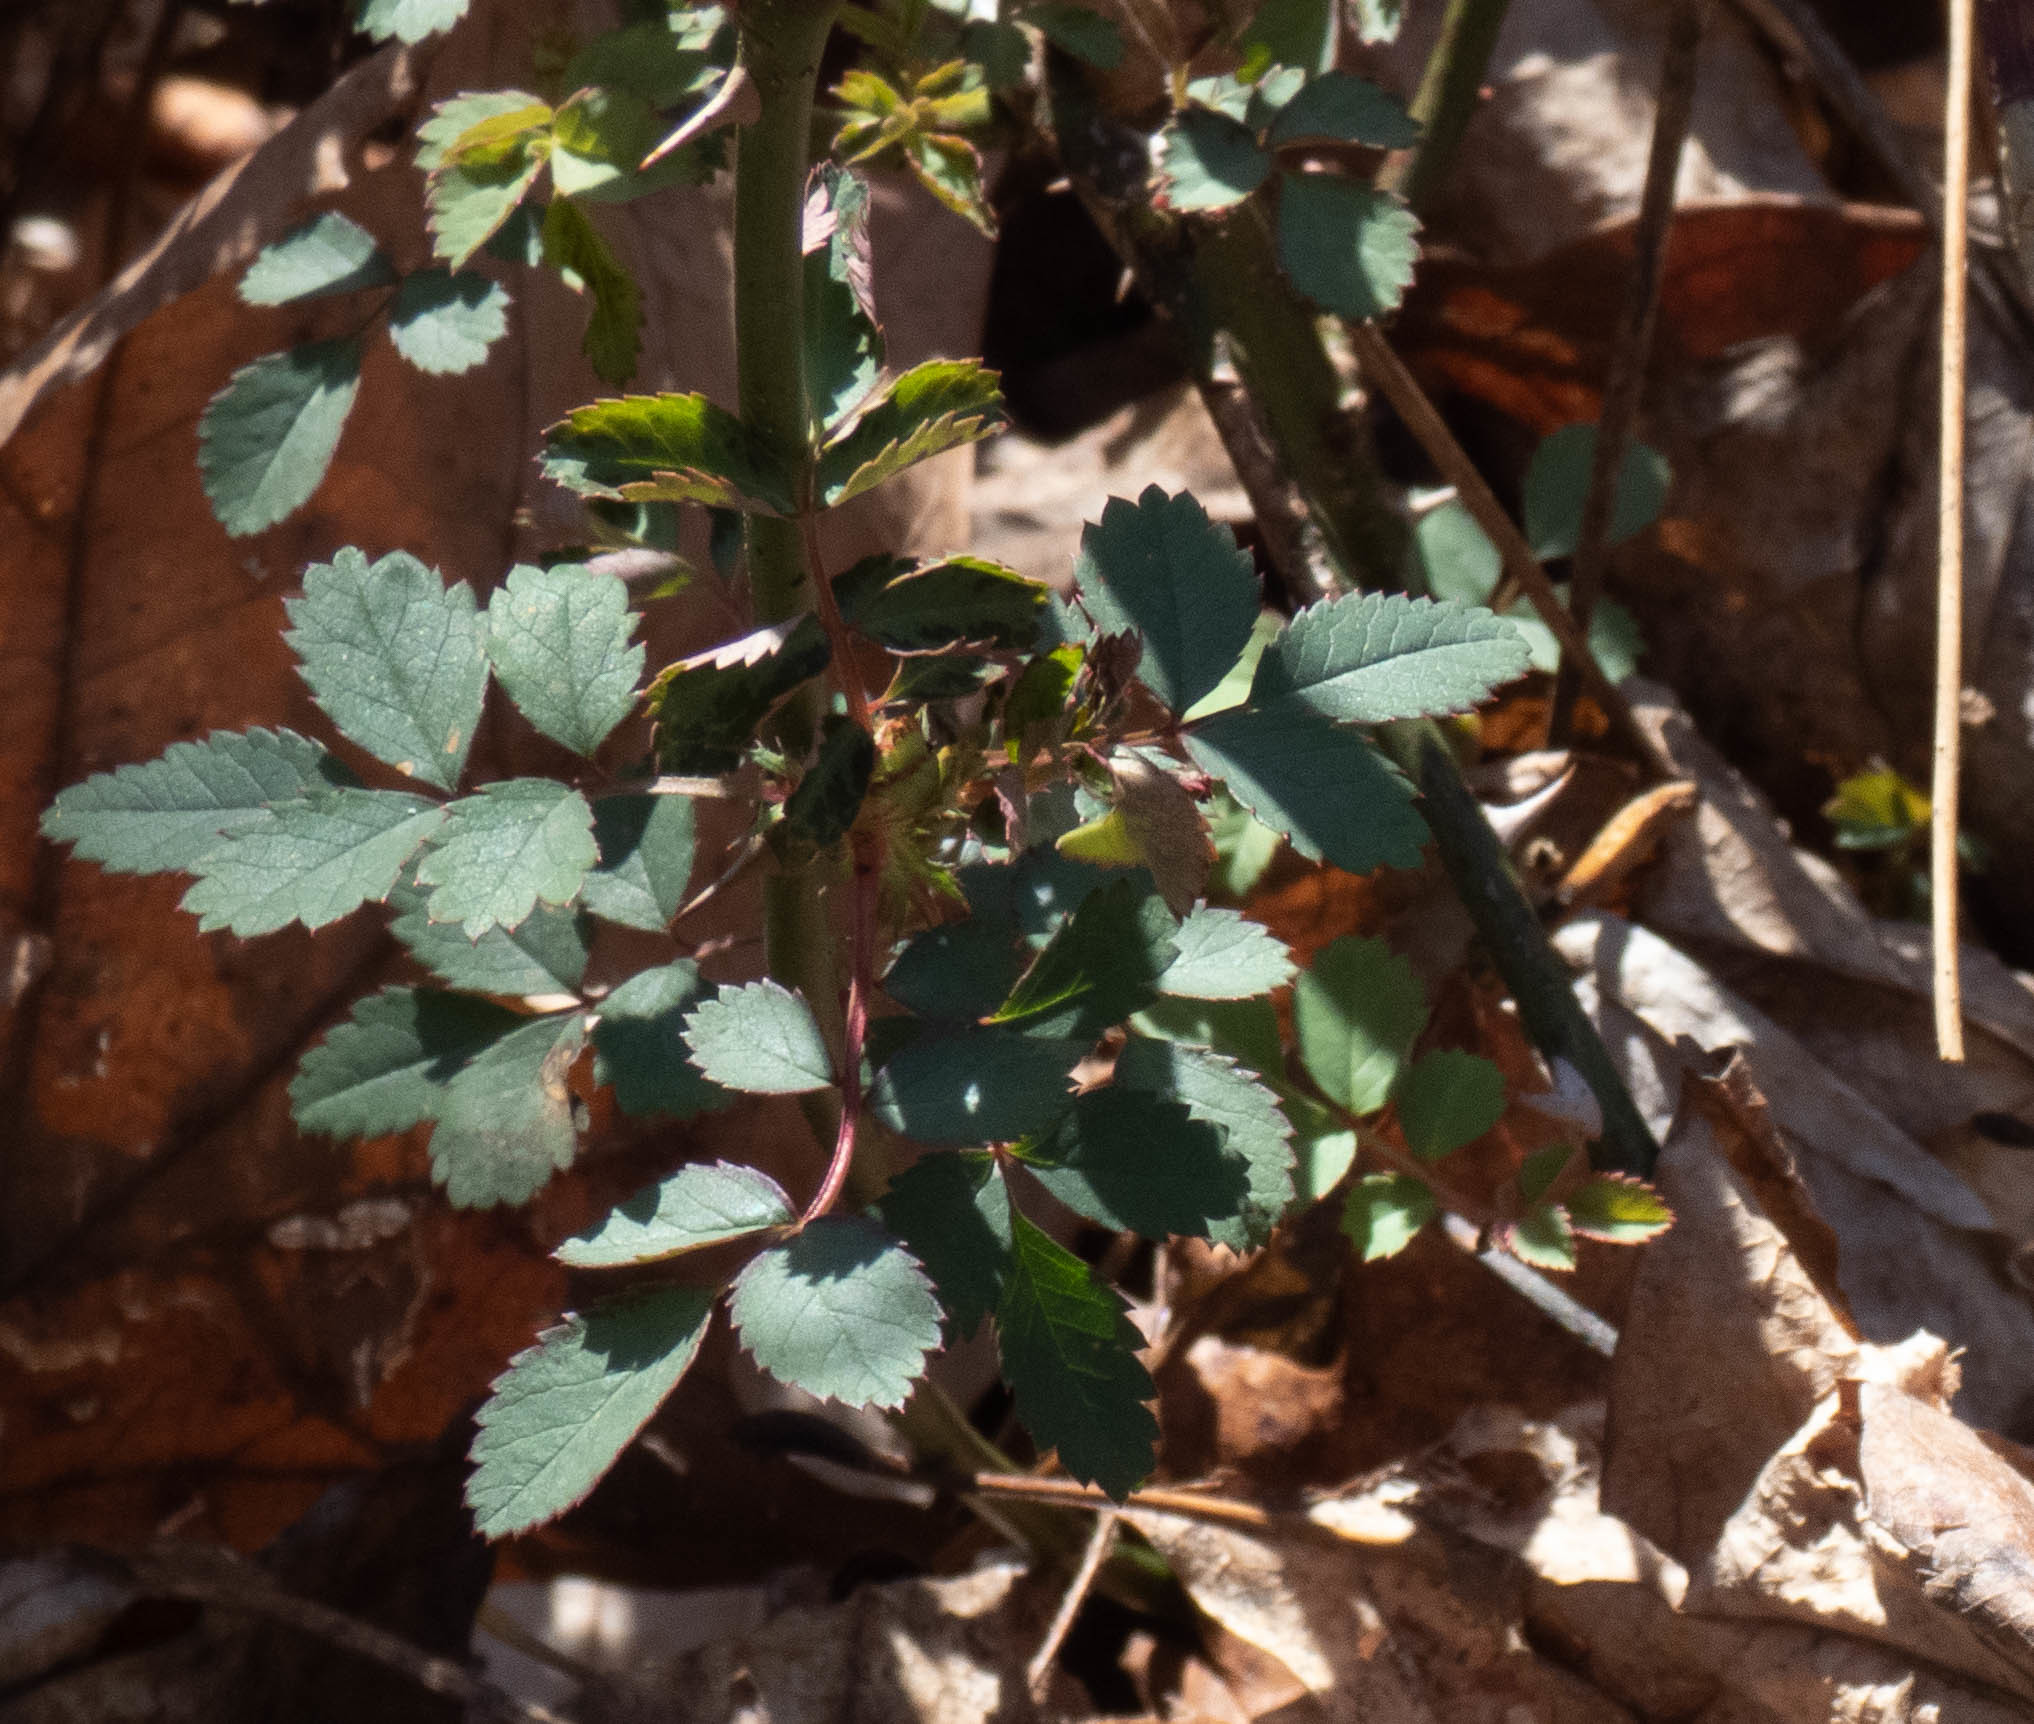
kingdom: Plantae
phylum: Tracheophyta
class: Magnoliopsida
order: Rosales
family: Rosaceae
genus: Rosa
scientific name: Rosa multiflora
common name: Multiflora rose
